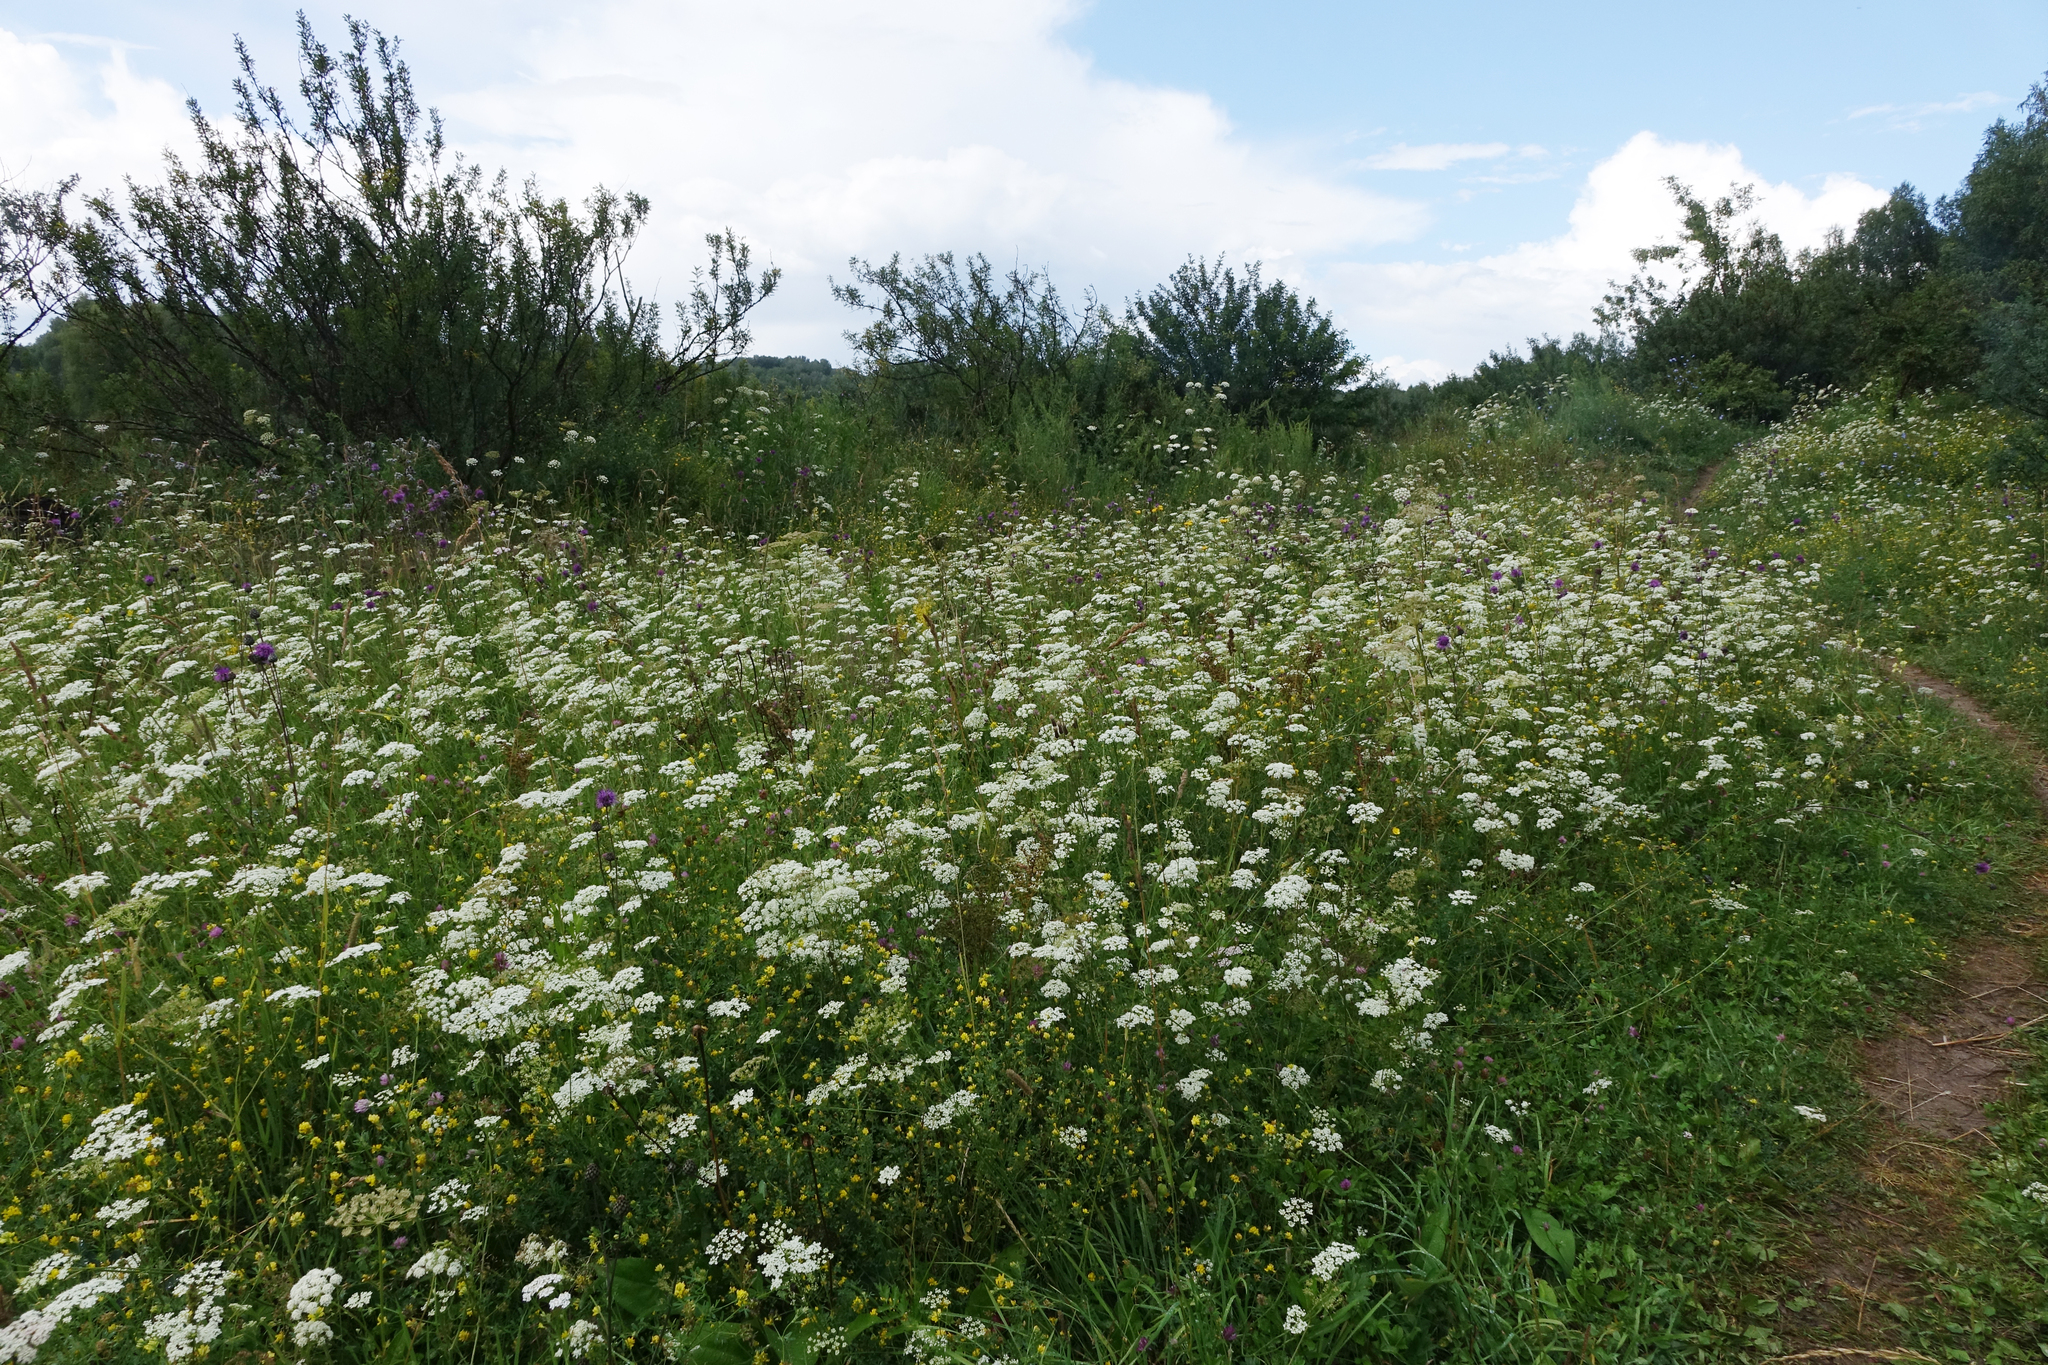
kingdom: Plantae
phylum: Tracheophyta
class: Magnoliopsida
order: Apiales
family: Apiaceae
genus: Pimpinella
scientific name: Pimpinella saxifraga
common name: Burnet-saxifrage
